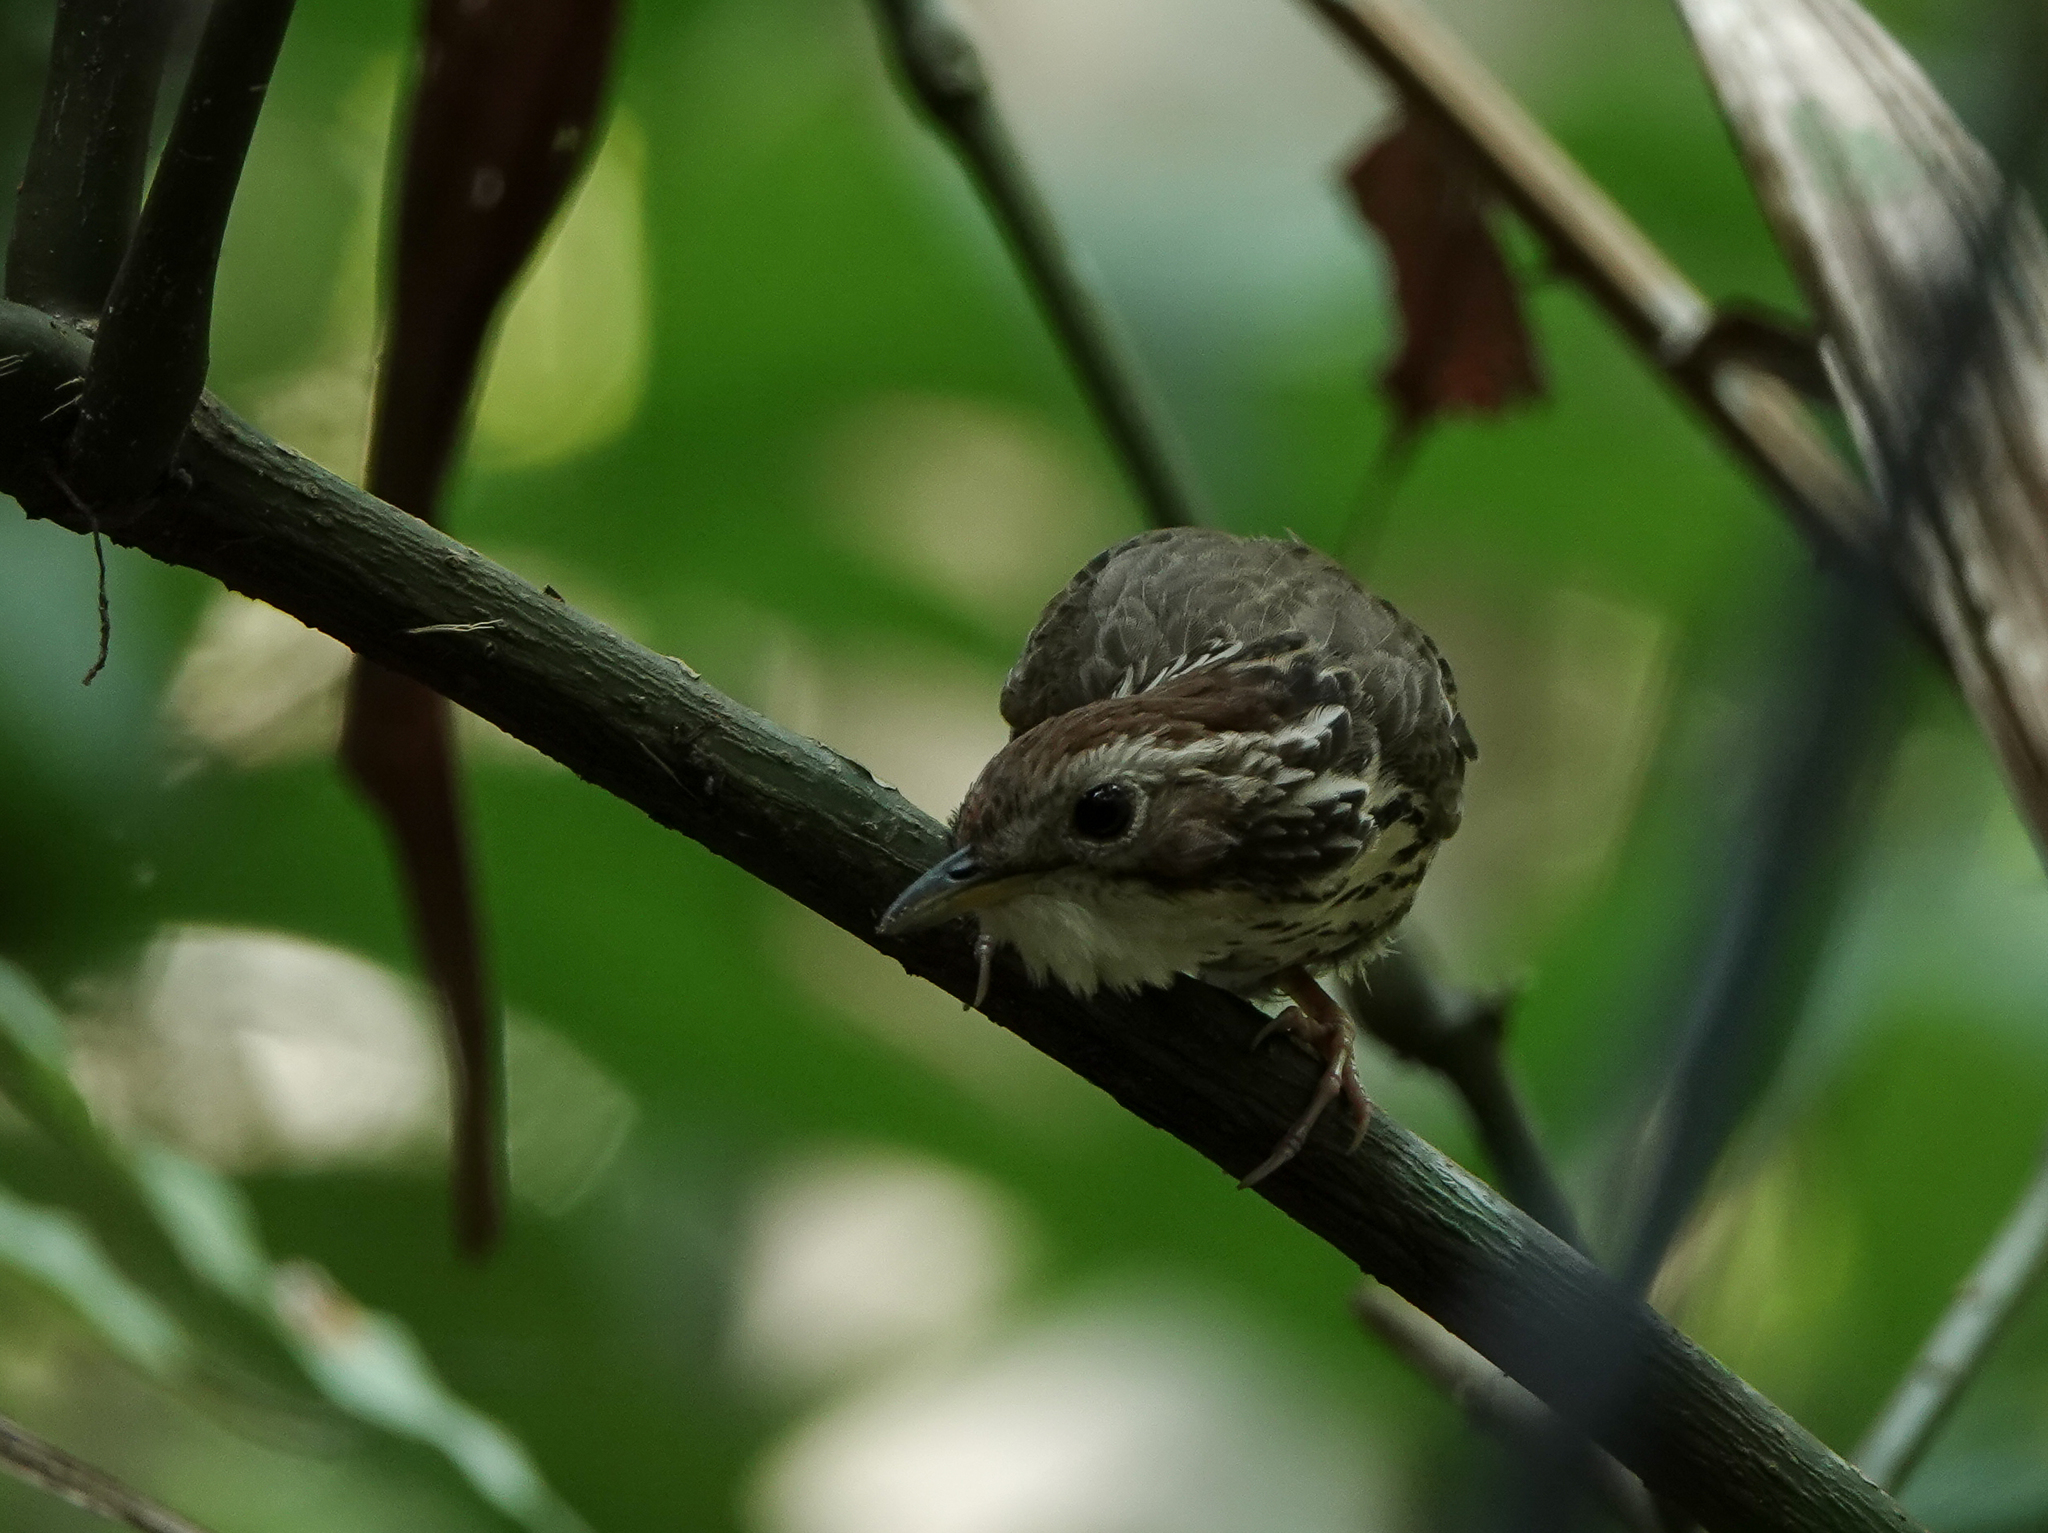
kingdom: Animalia
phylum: Chordata
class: Aves
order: Passeriformes
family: Pellorneidae
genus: Pellorneum
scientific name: Pellorneum ruficeps
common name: Puff-throated babbler
